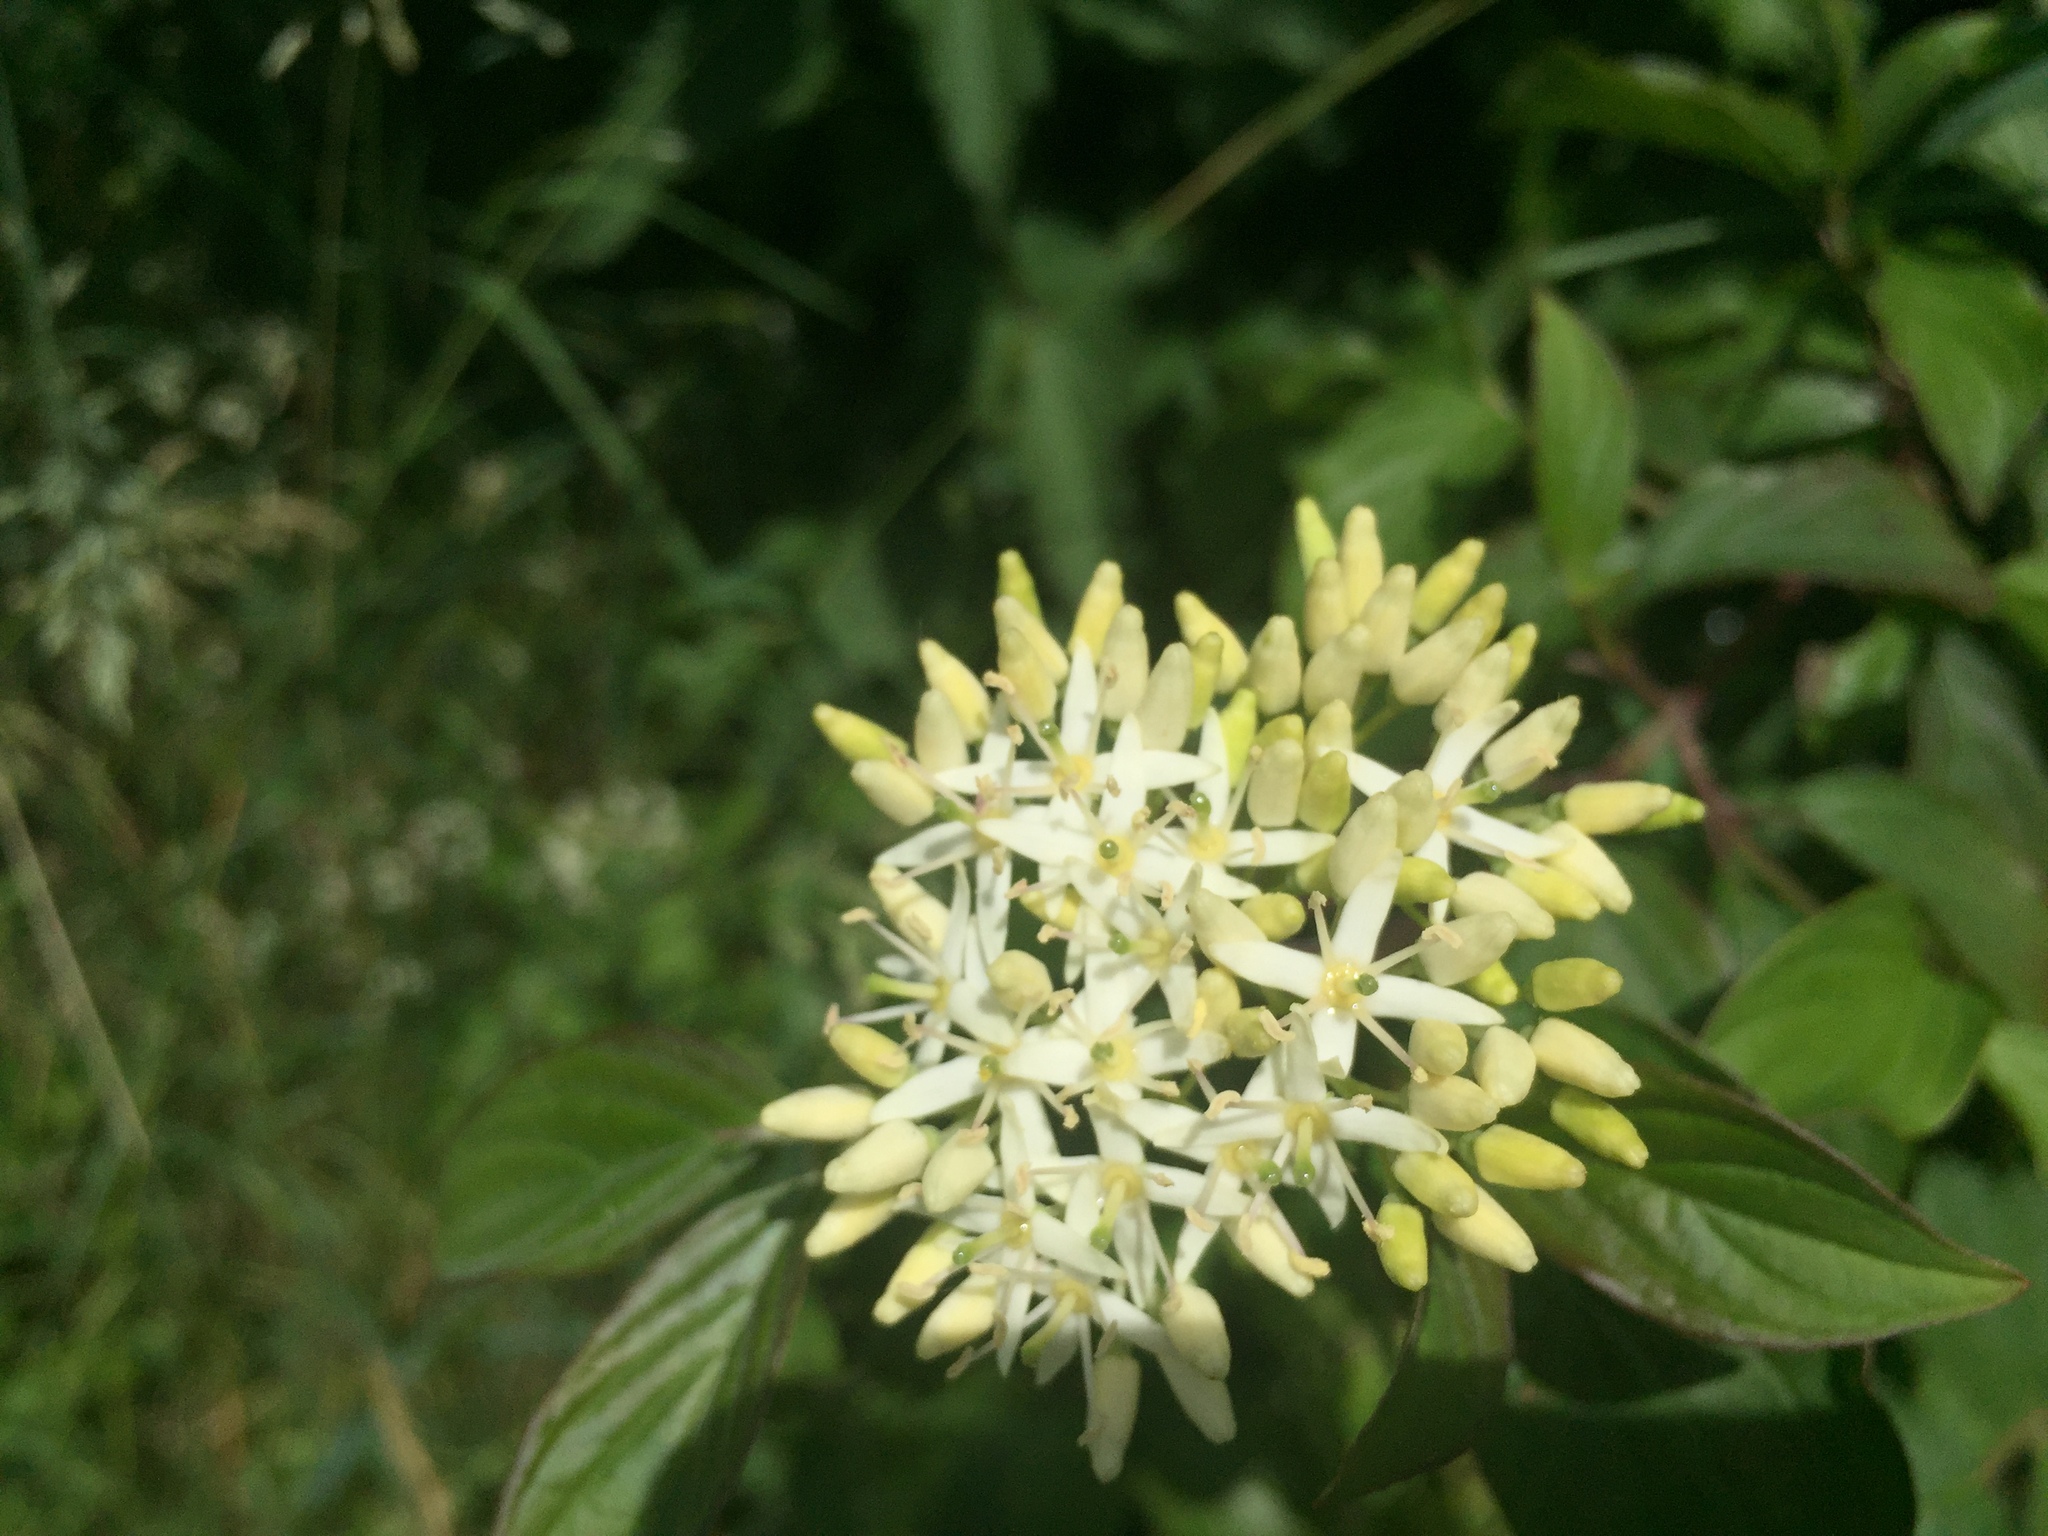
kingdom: Plantae
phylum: Tracheophyta
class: Magnoliopsida
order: Cornales
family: Cornaceae
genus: Cornus
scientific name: Cornus sanguinea
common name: Dogwood
